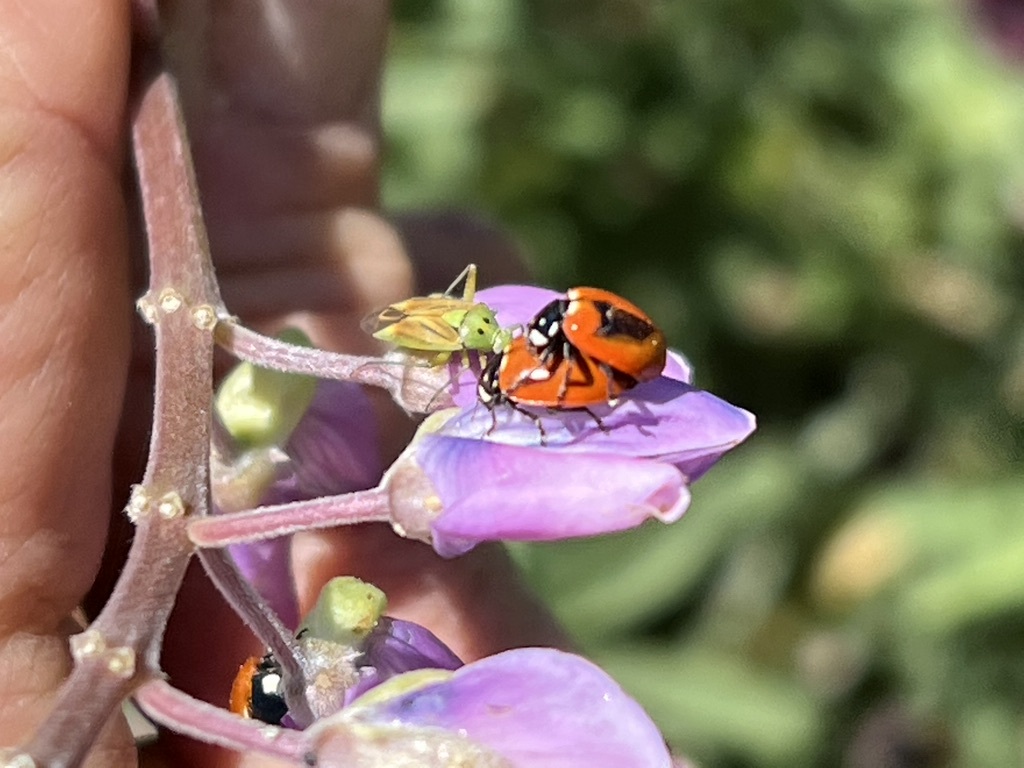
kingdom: Animalia
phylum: Arthropoda
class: Insecta
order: Coleoptera
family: Coccinellidae
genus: Hippodamia
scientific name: Hippodamia quinquesignata
